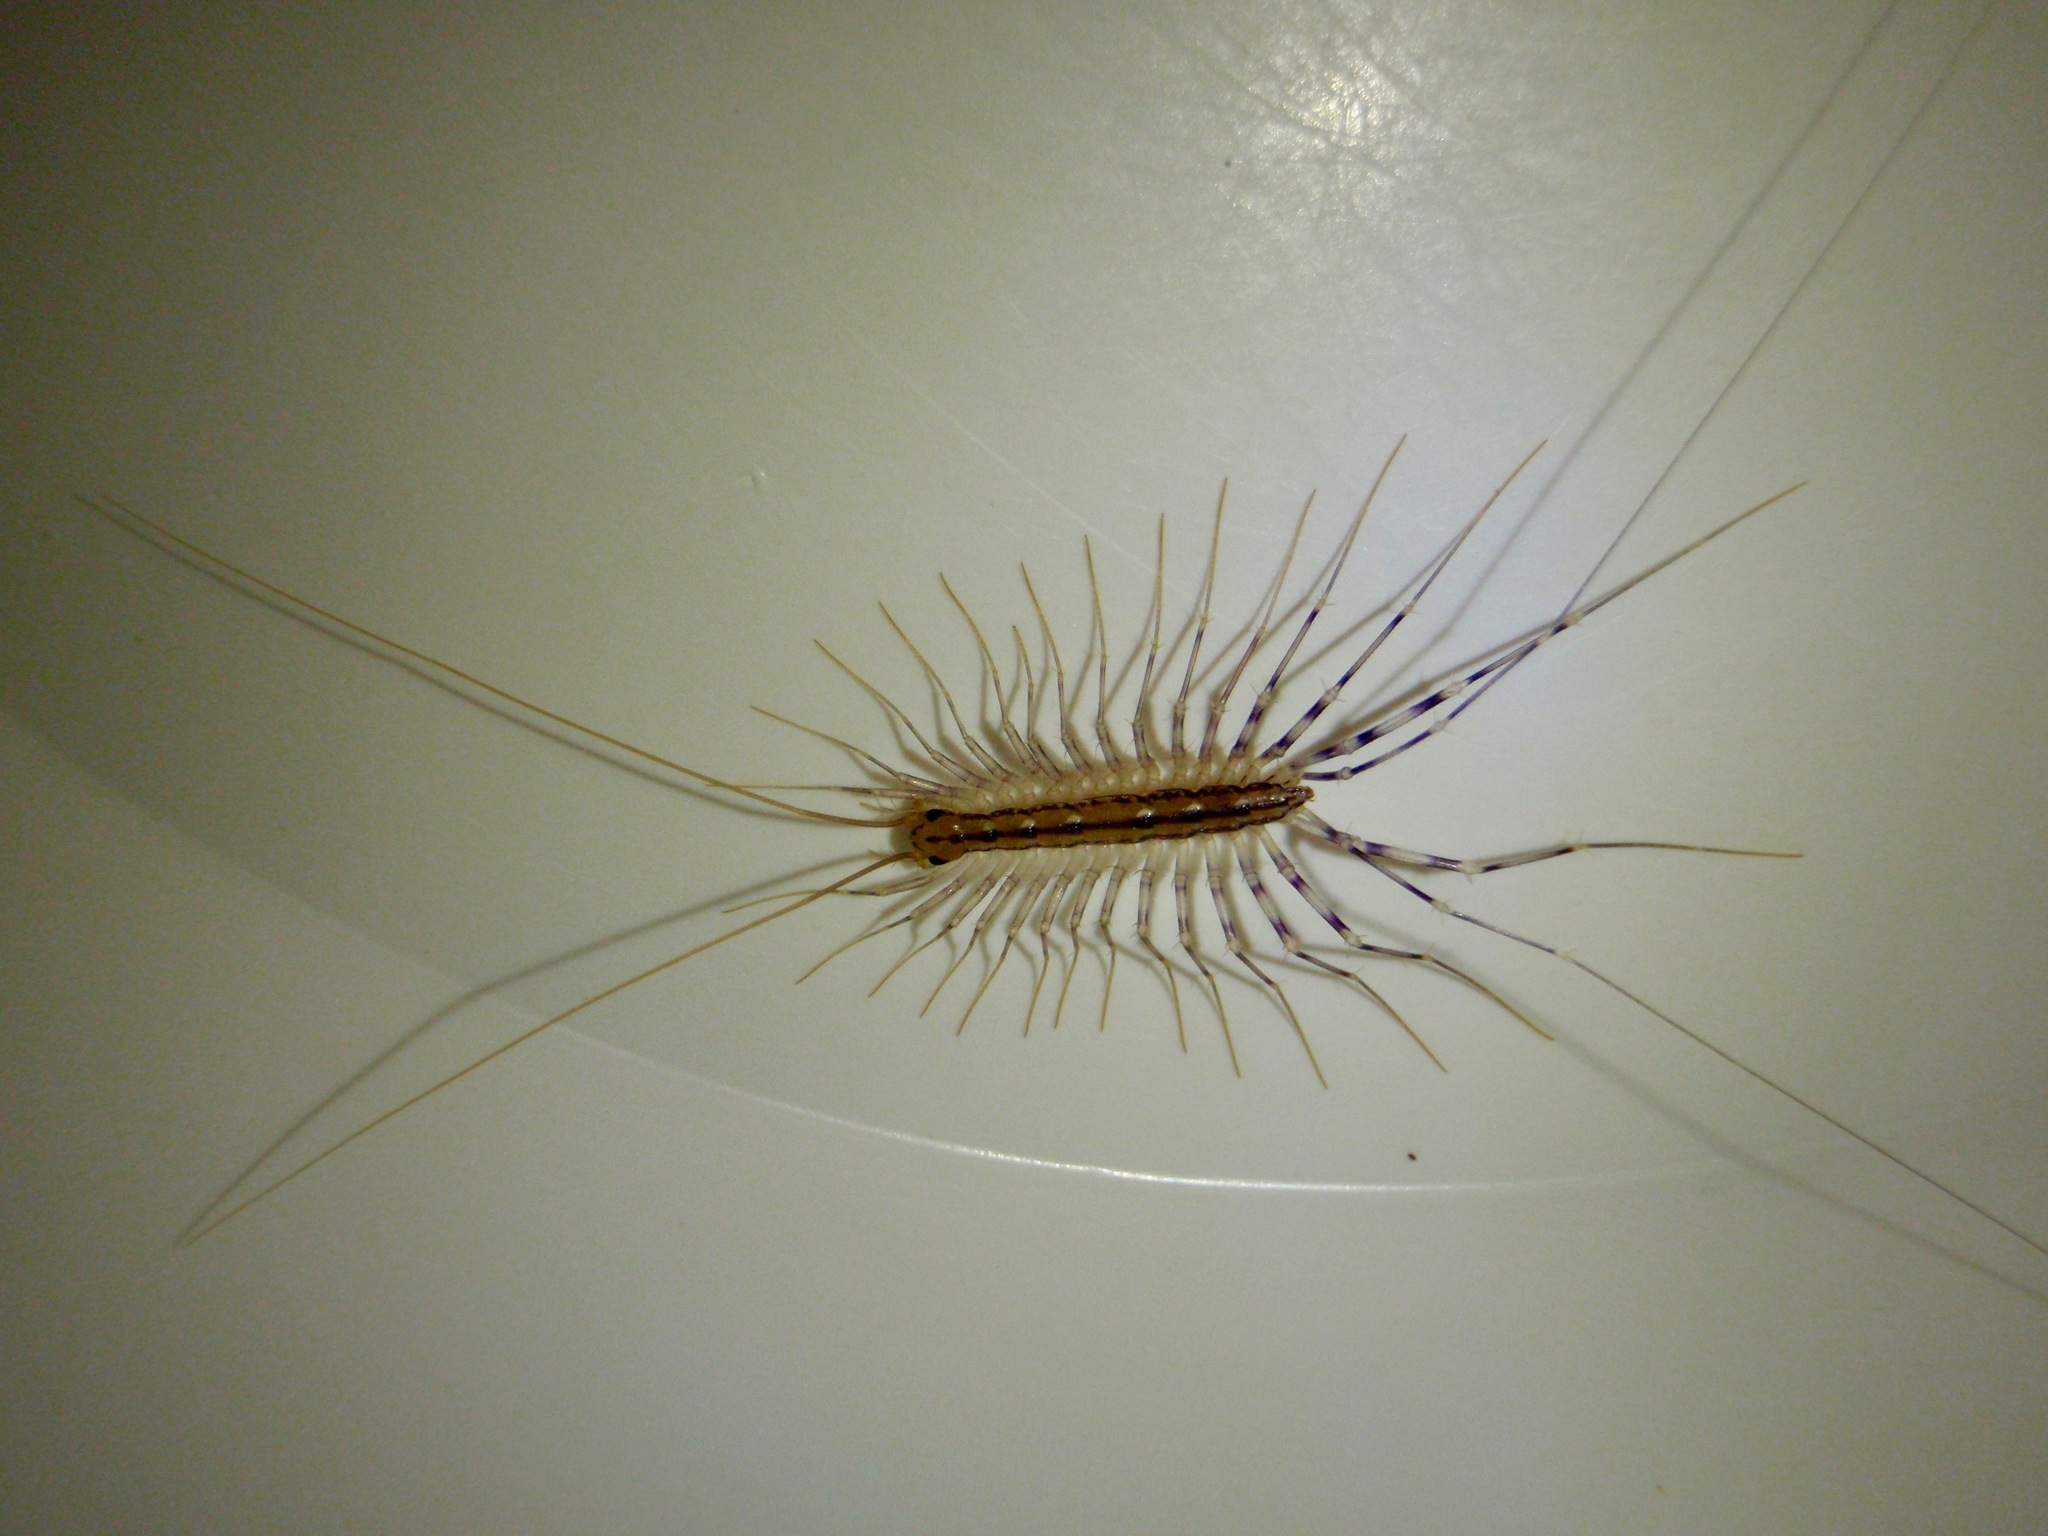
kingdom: Animalia
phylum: Arthropoda
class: Chilopoda
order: Scutigeromorpha
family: Scutigeridae
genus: Scutigera
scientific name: Scutigera coleoptrata
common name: House centipede
